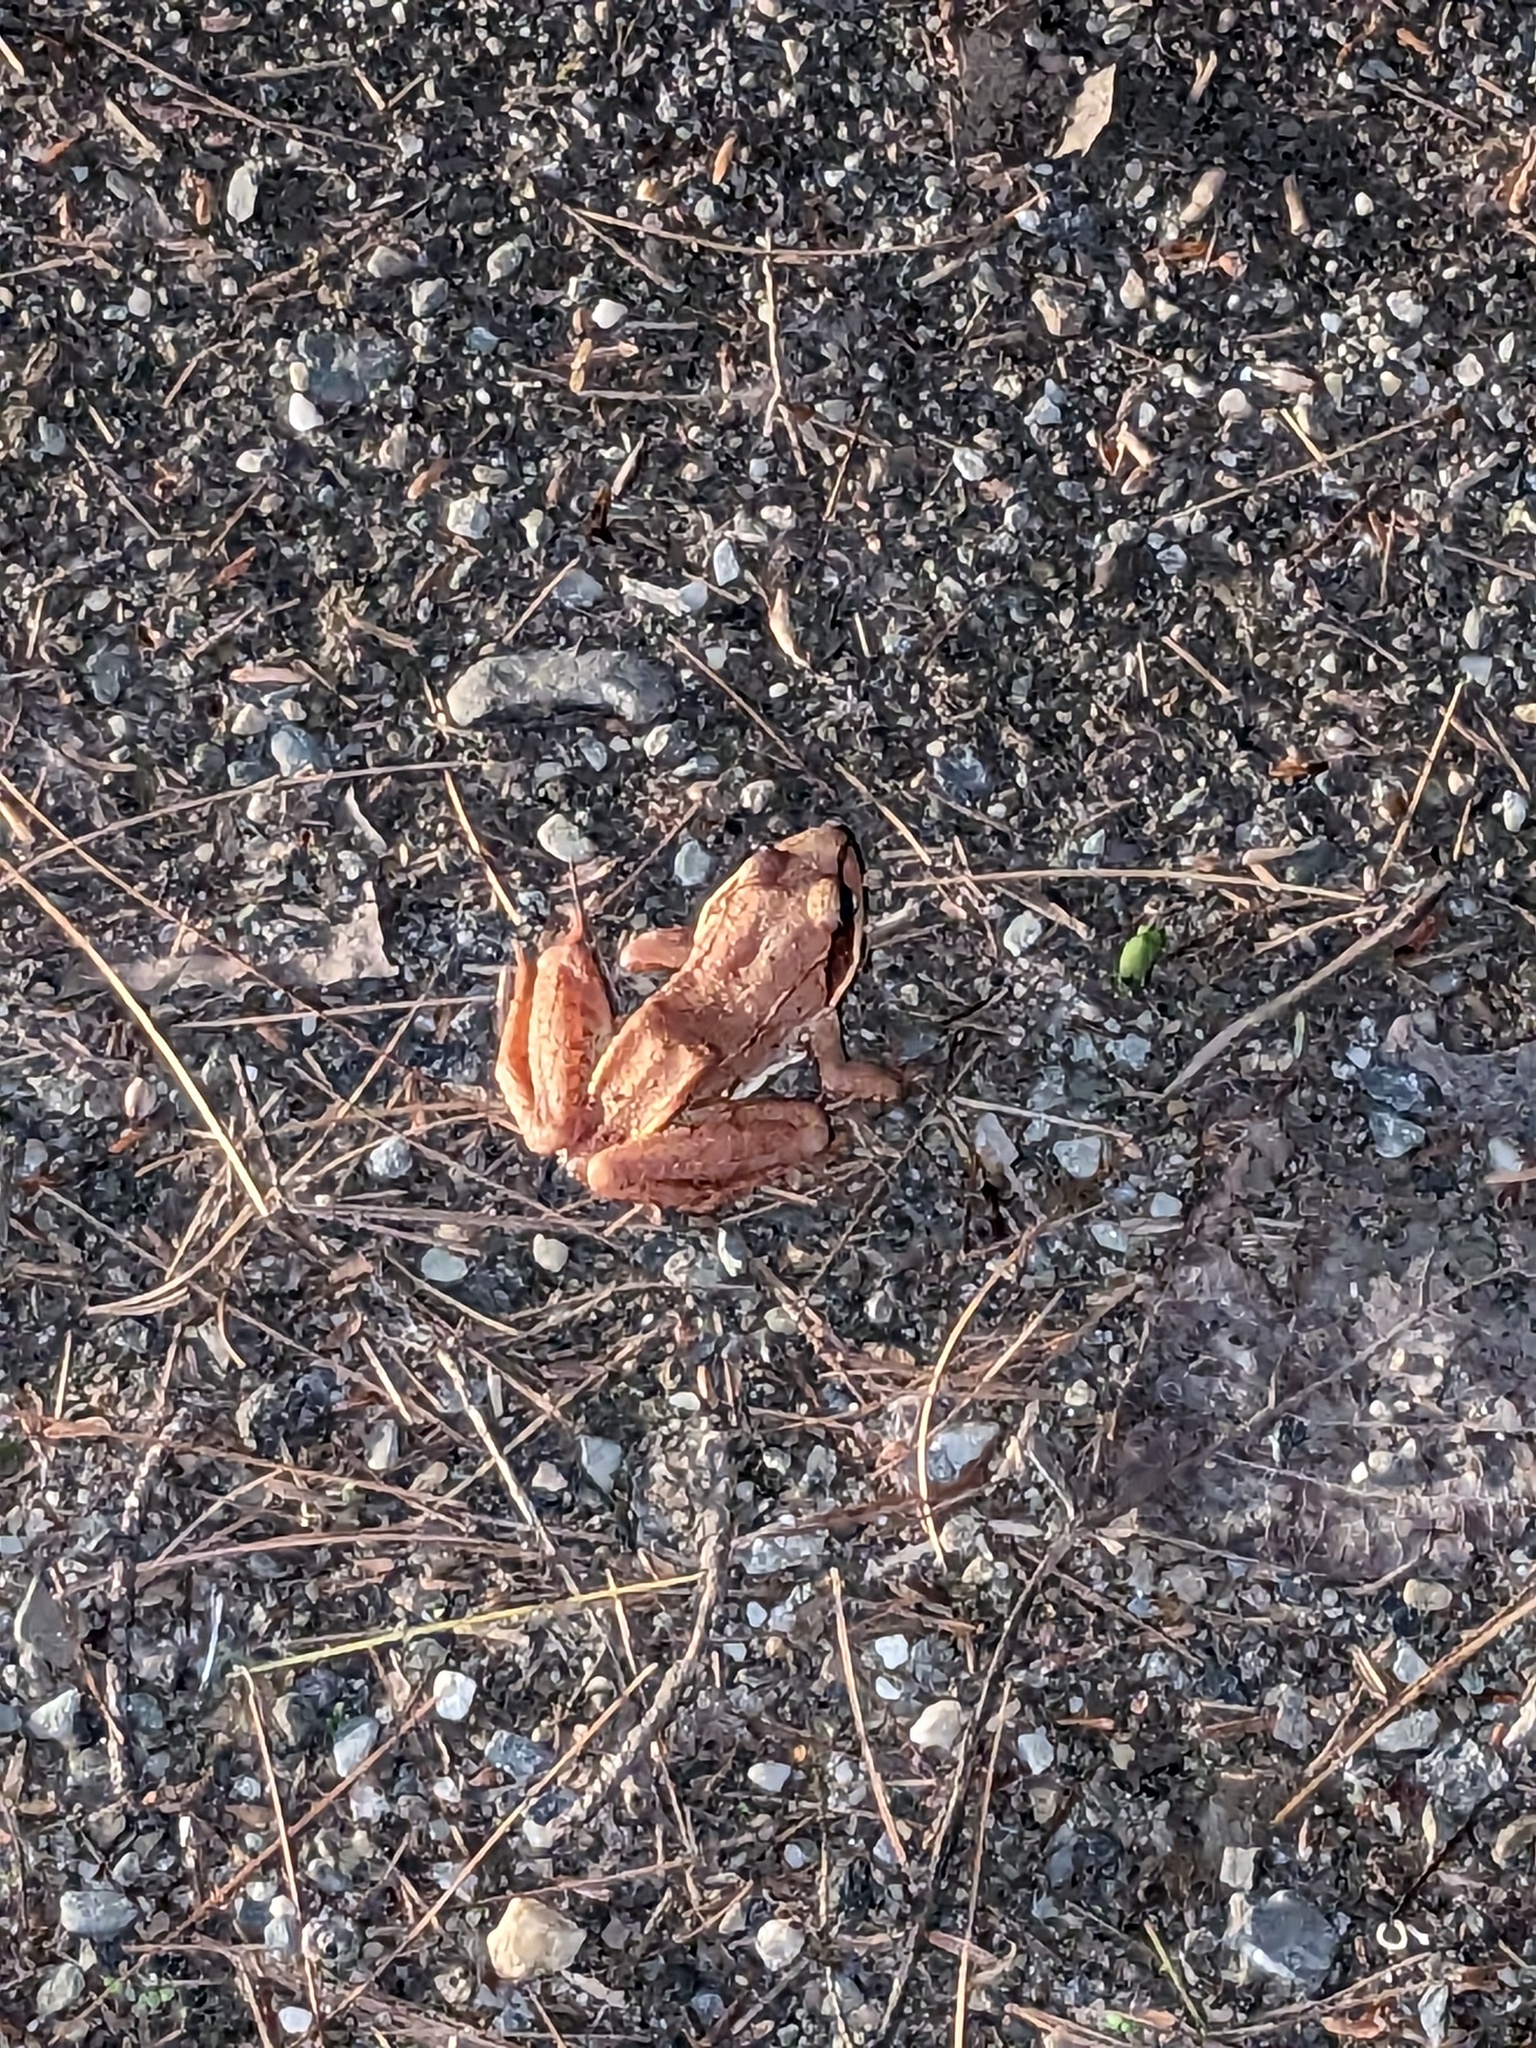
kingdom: Animalia
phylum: Chordata
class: Amphibia
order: Anura
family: Ranidae
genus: Lithobates
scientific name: Lithobates sylvaticus
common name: Wood frog
